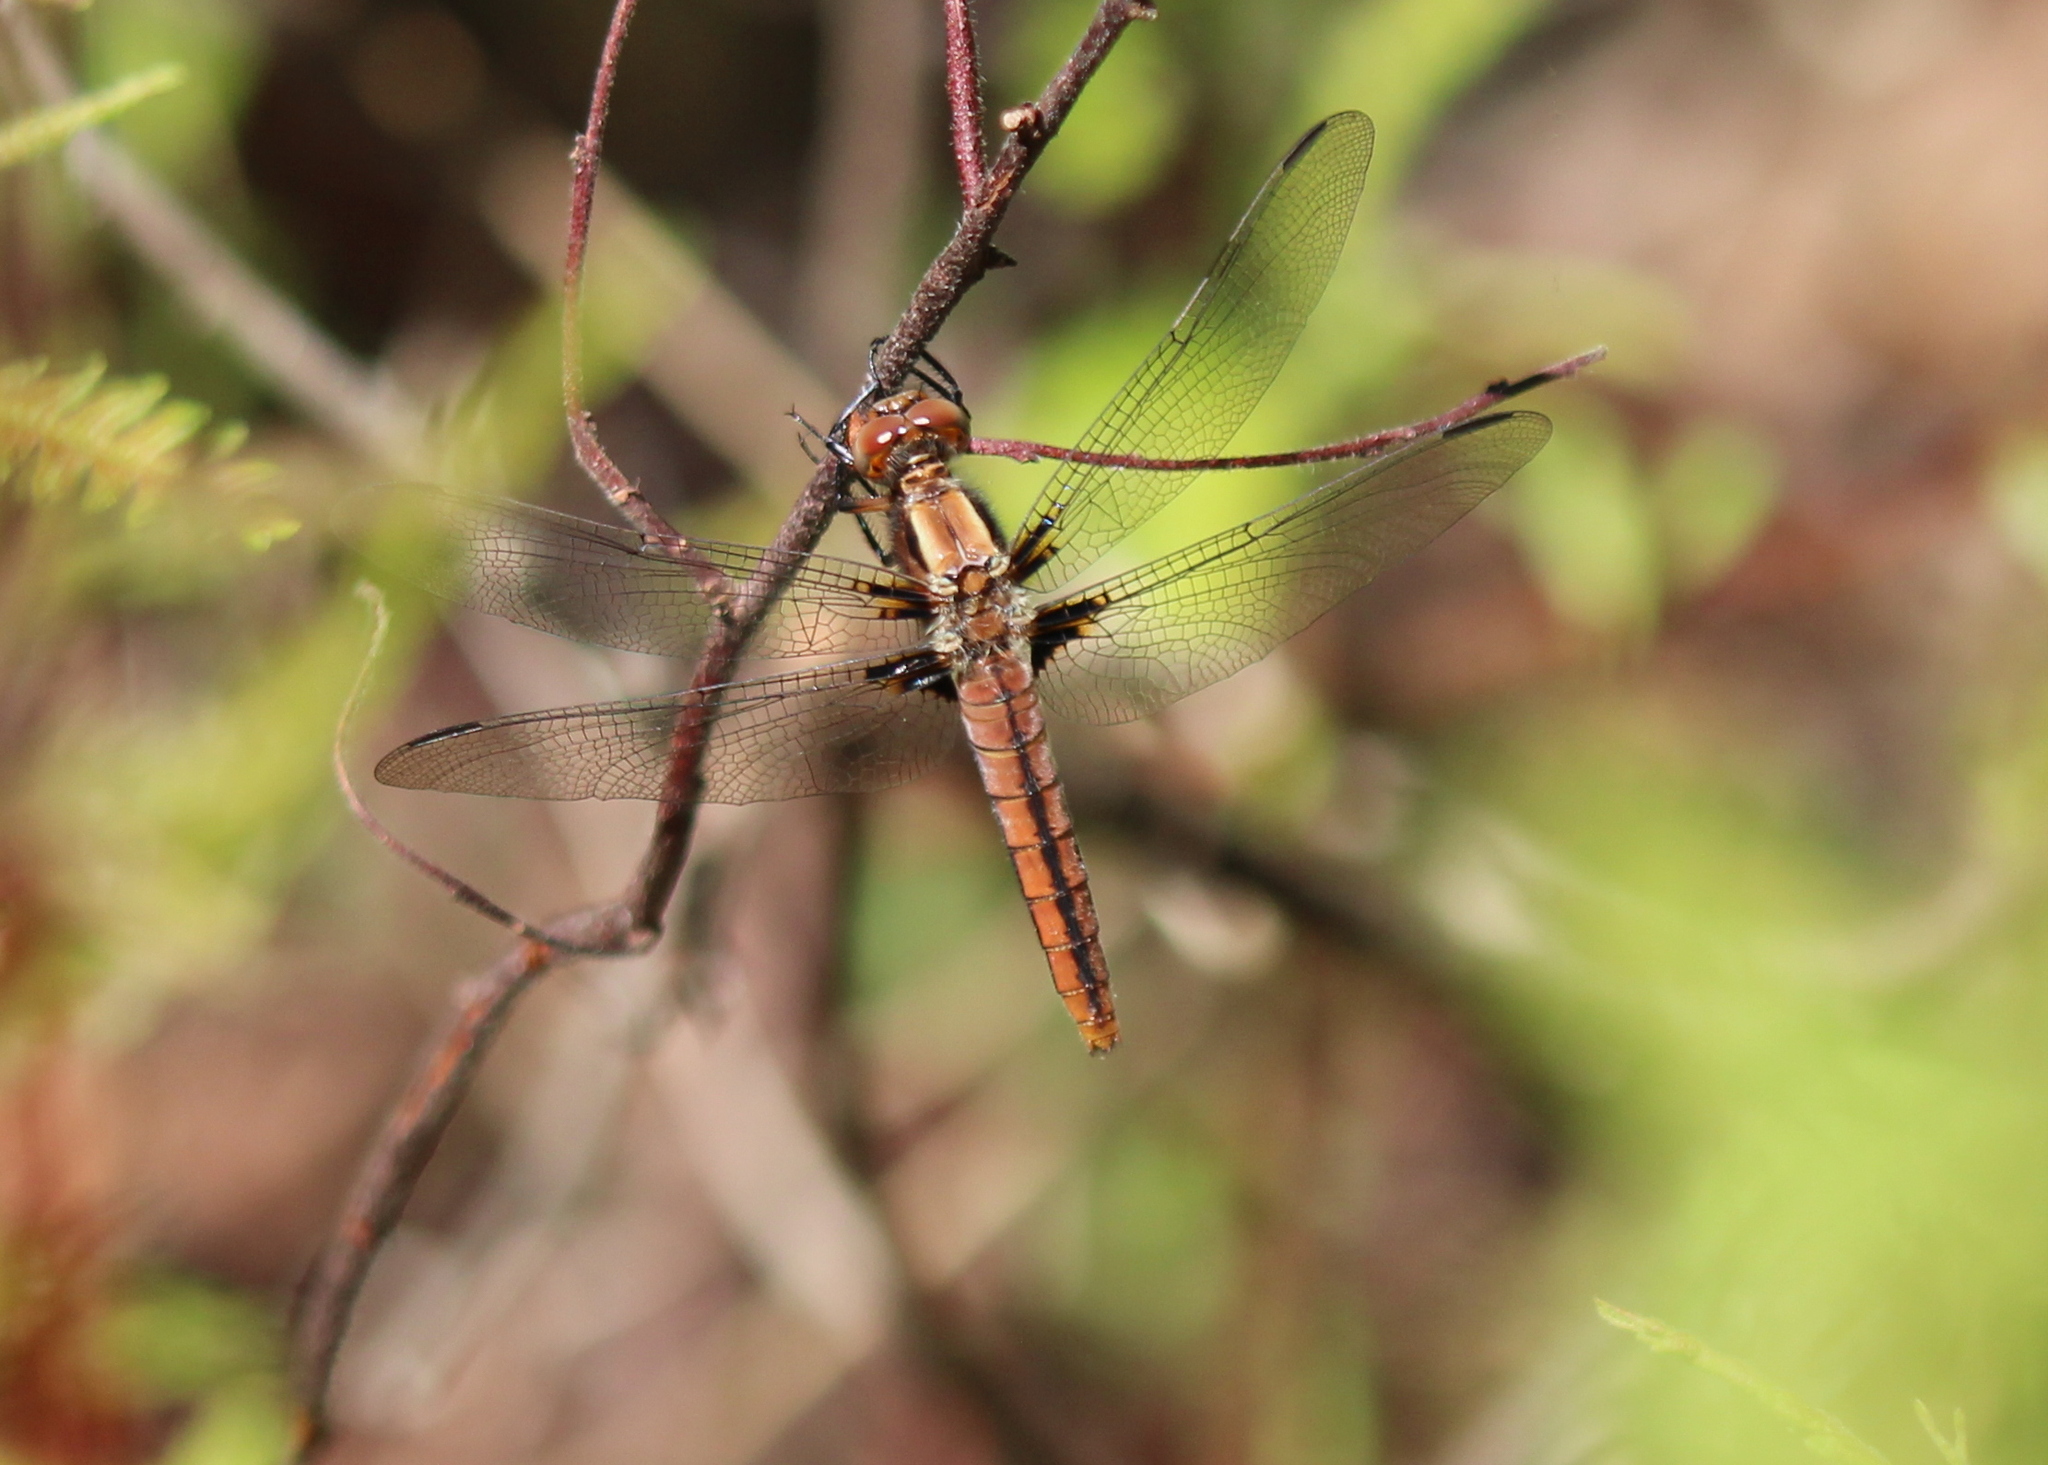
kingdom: Animalia
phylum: Arthropoda
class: Insecta
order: Odonata
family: Libellulidae
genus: Ladona
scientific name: Ladona julia
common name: Chalk-fronted corporal
